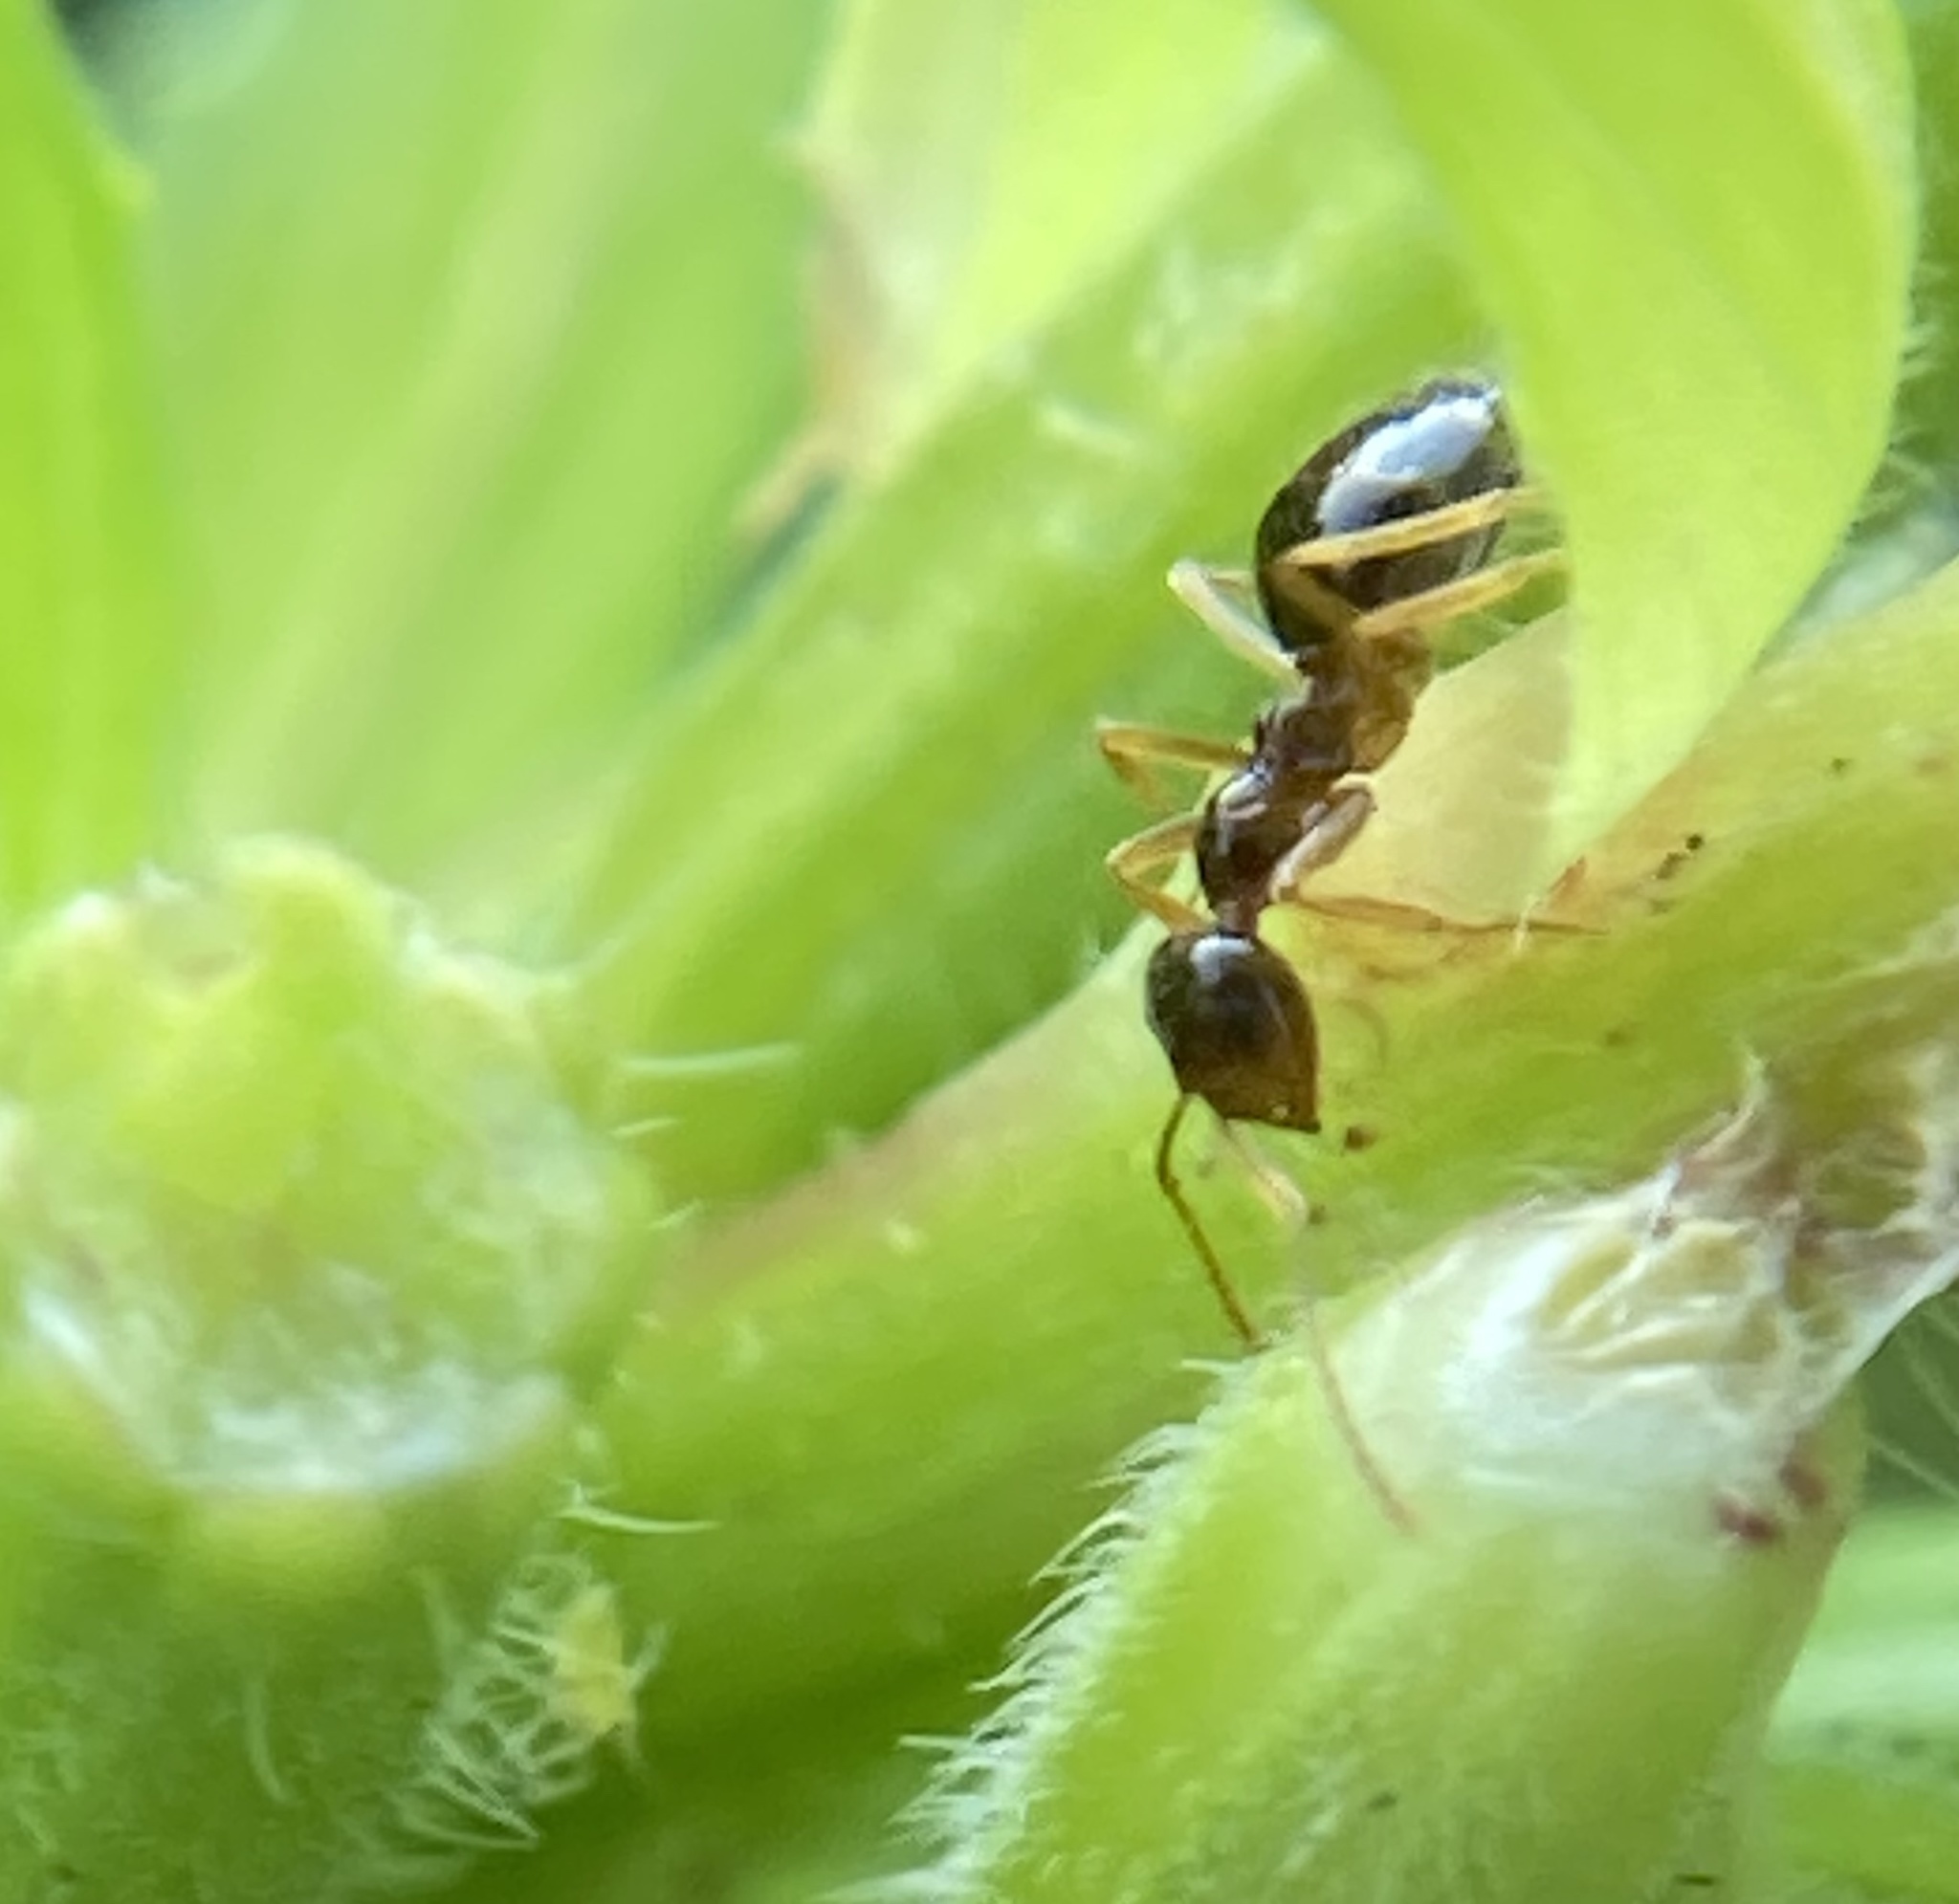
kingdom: Animalia
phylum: Arthropoda
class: Insecta
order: Hymenoptera
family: Formicidae
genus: Prenolepis
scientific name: Prenolepis imparis
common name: Small honey ant
